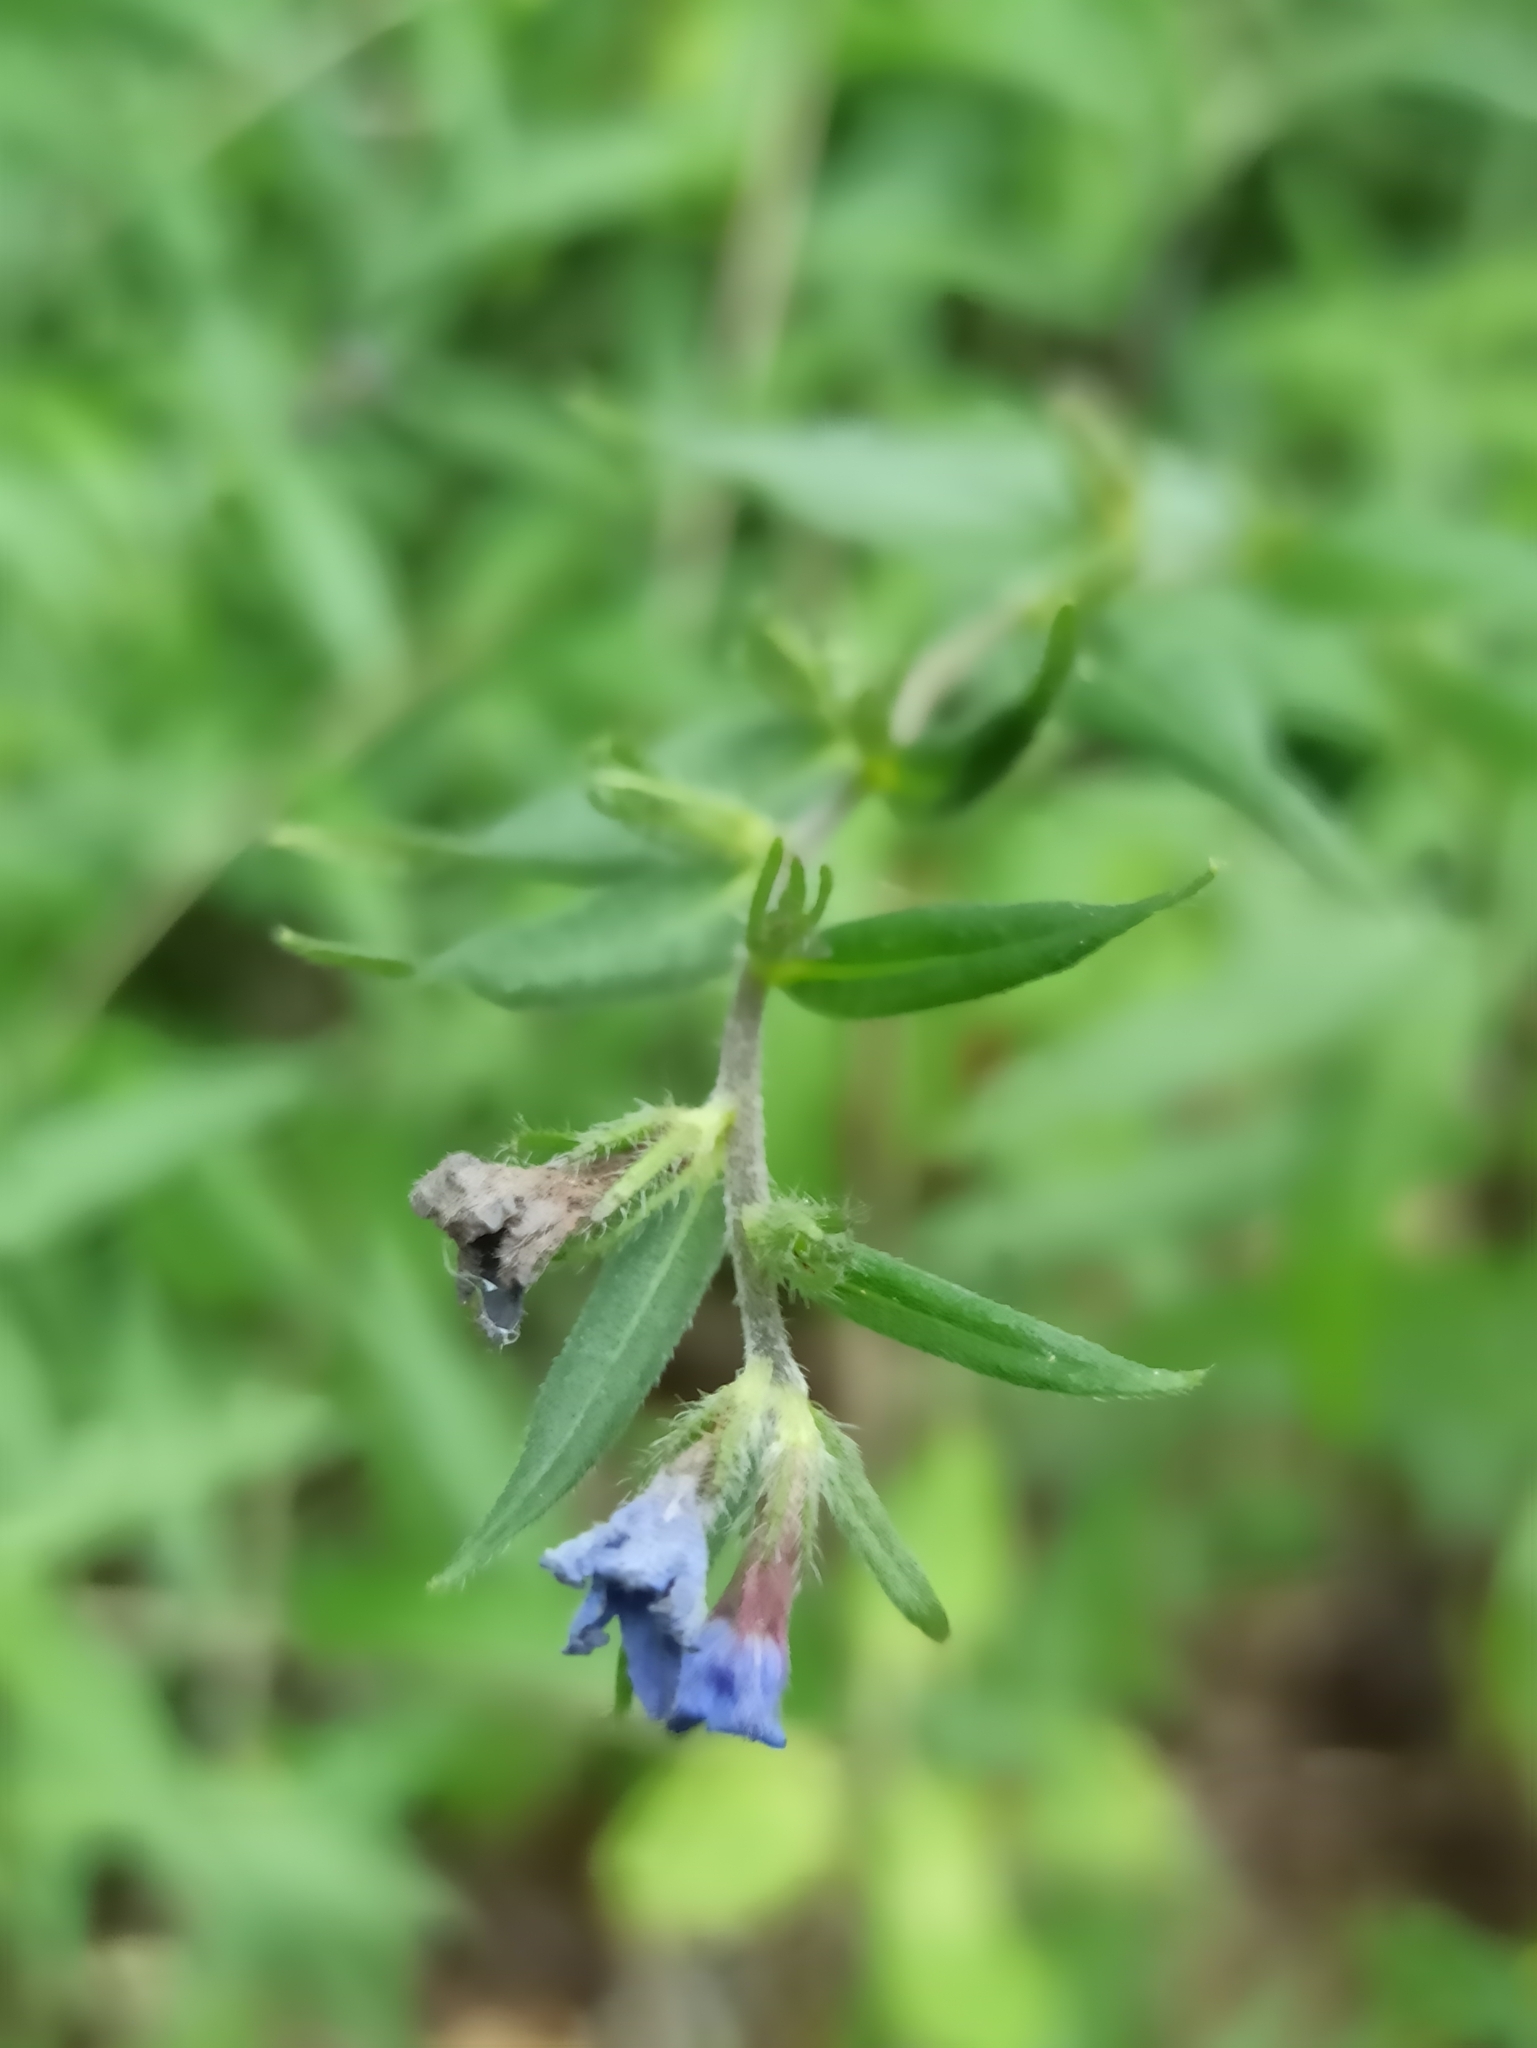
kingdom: Plantae
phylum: Tracheophyta
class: Magnoliopsida
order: Boraginales
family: Boraginaceae
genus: Aegonychon
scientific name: Aegonychon purpurocaeruleum
